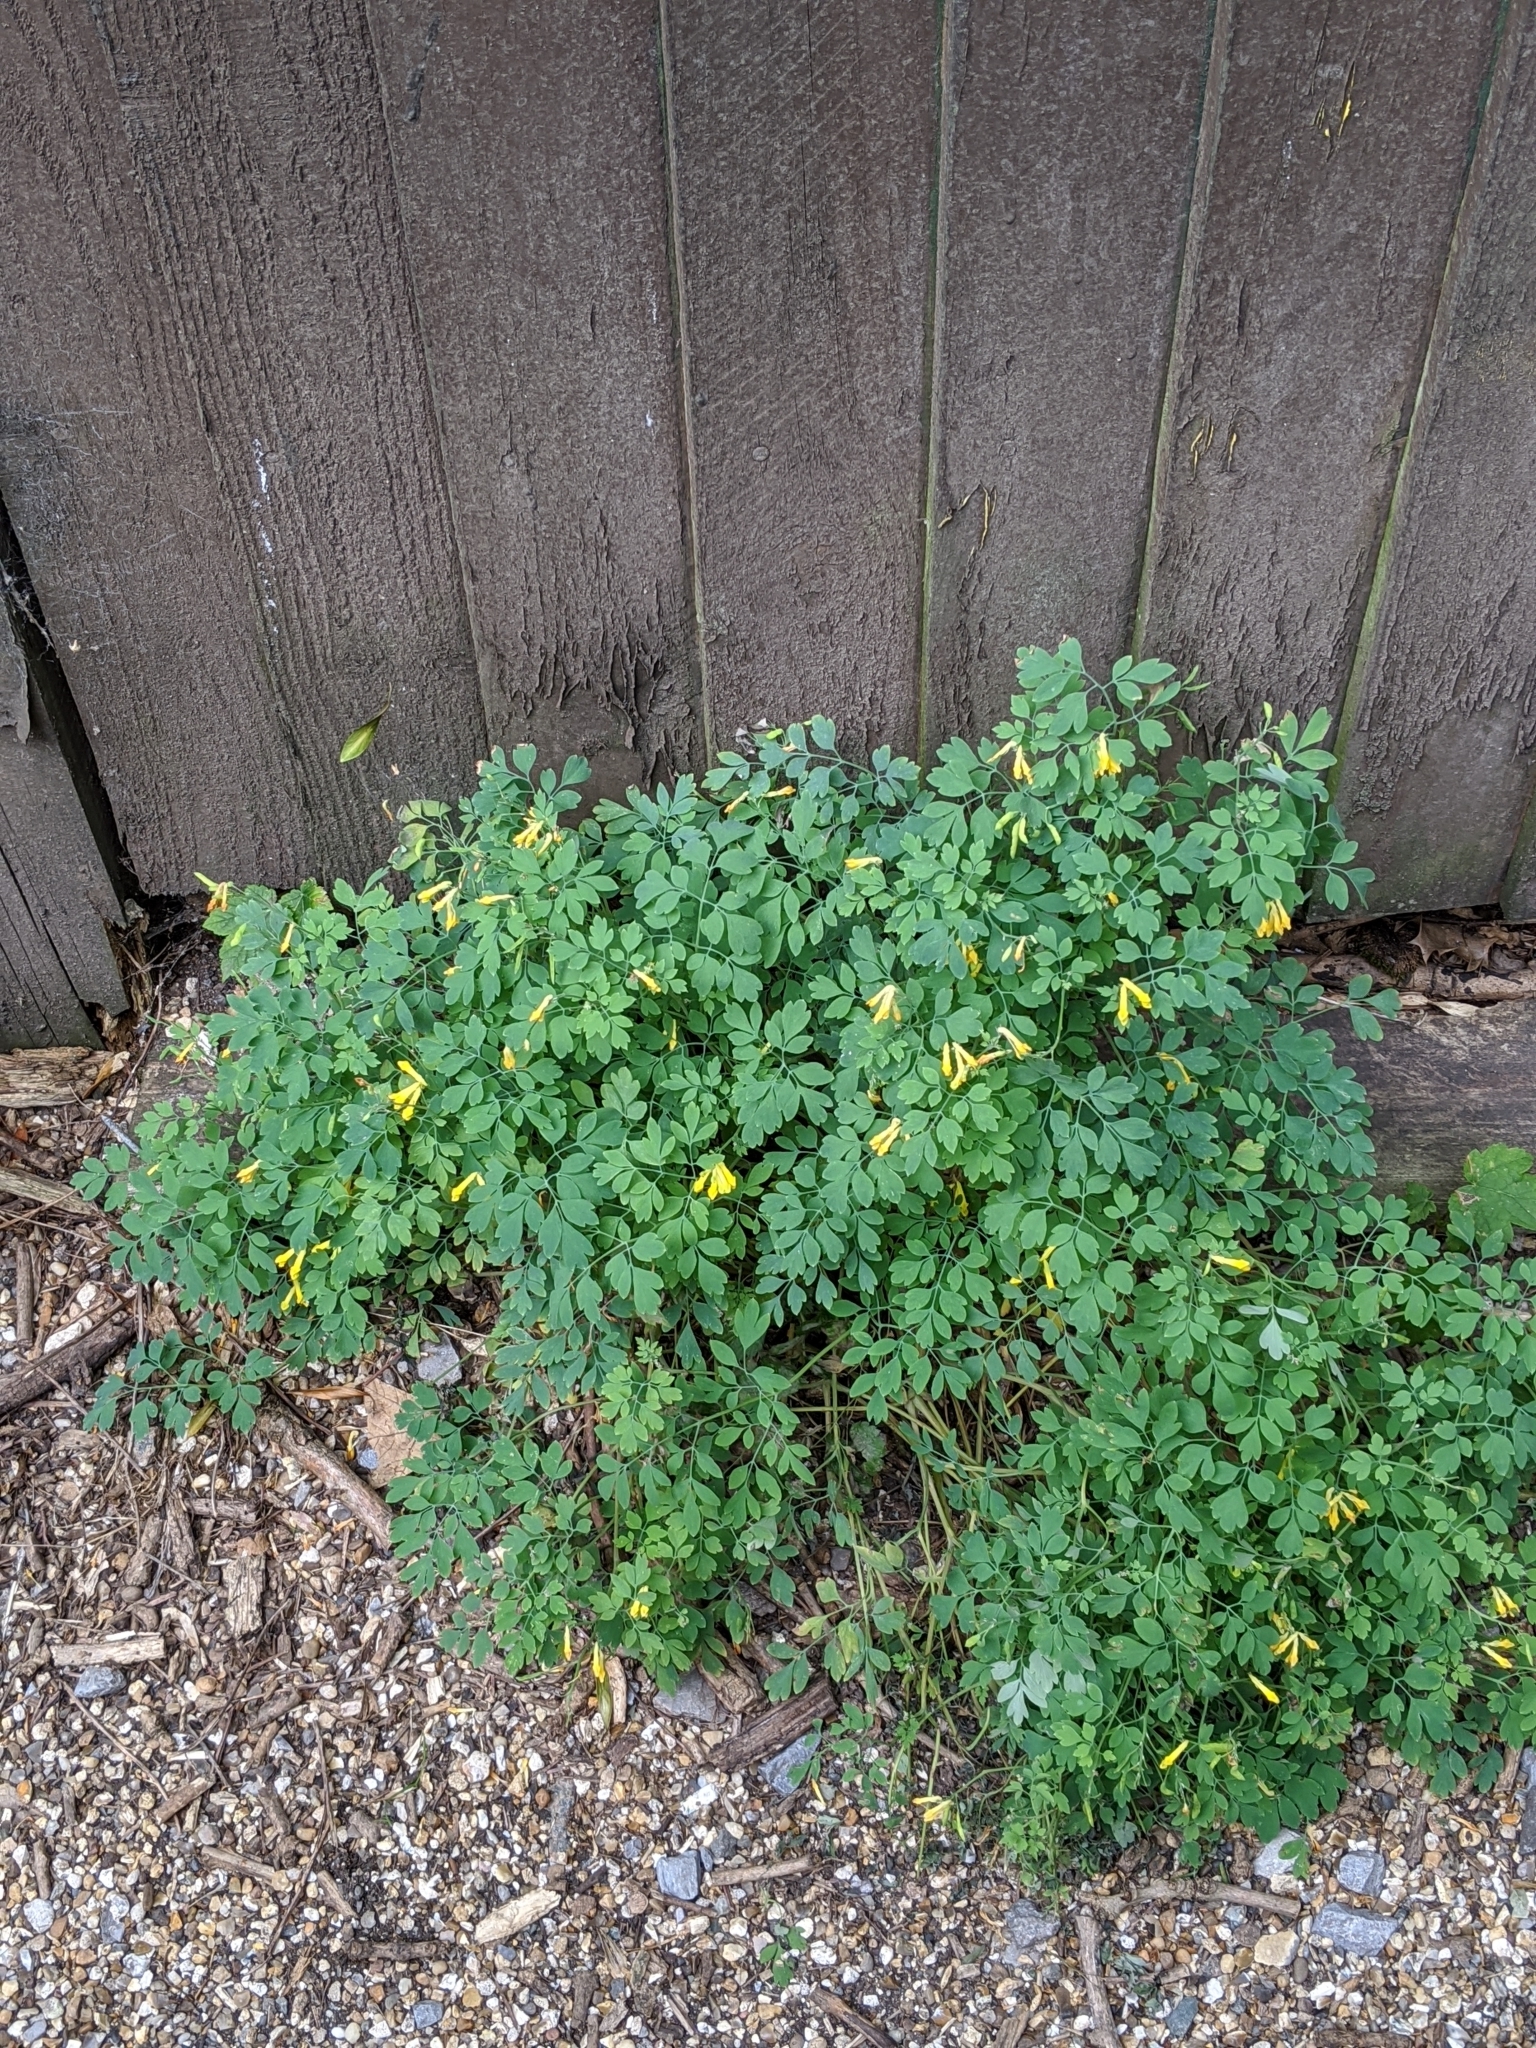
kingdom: Plantae
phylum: Tracheophyta
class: Magnoliopsida
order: Ranunculales
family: Papaveraceae
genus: Pseudofumaria
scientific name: Pseudofumaria lutea
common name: Yellow corydalis
